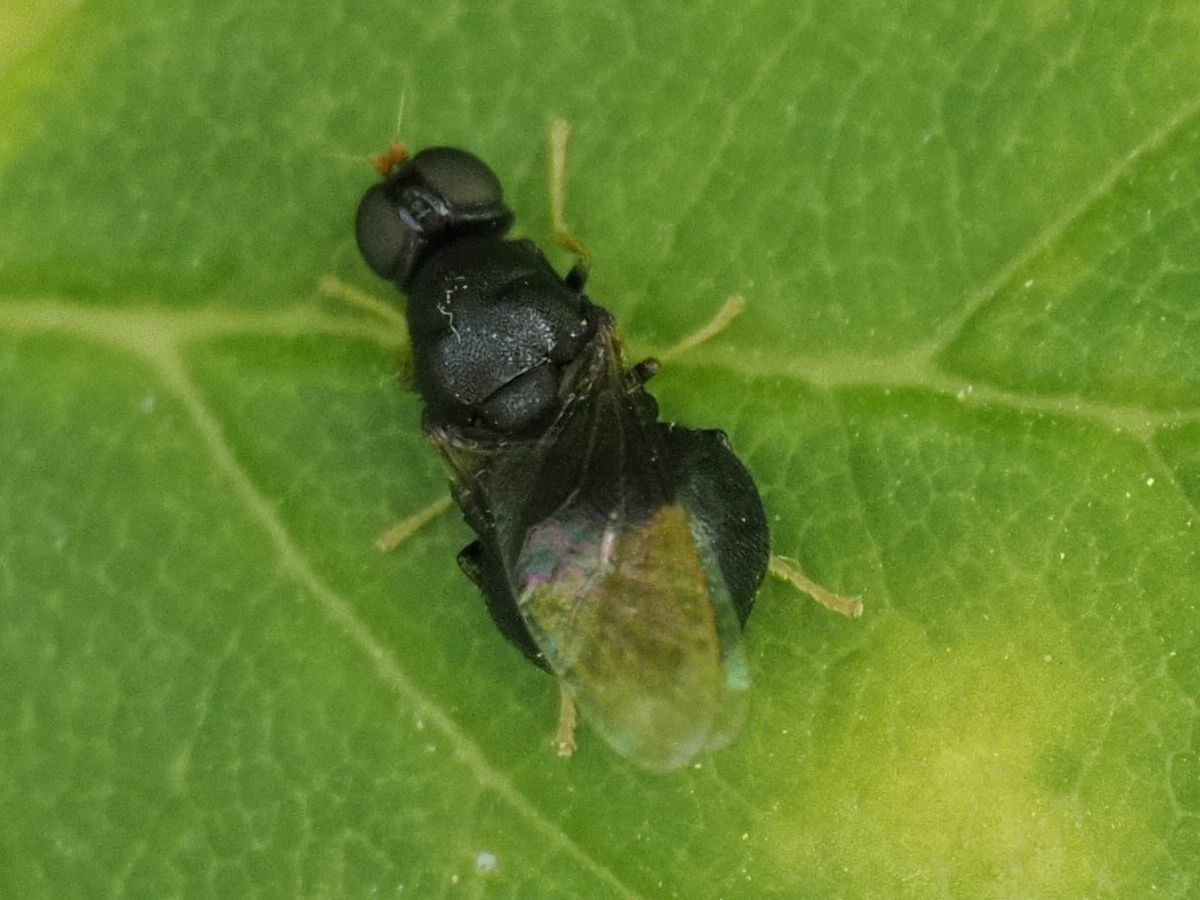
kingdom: Animalia
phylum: Arthropoda
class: Insecta
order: Diptera
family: Stratiomyidae
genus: Pachygaster
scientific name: Pachygaster atra
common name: Dark-winged black
